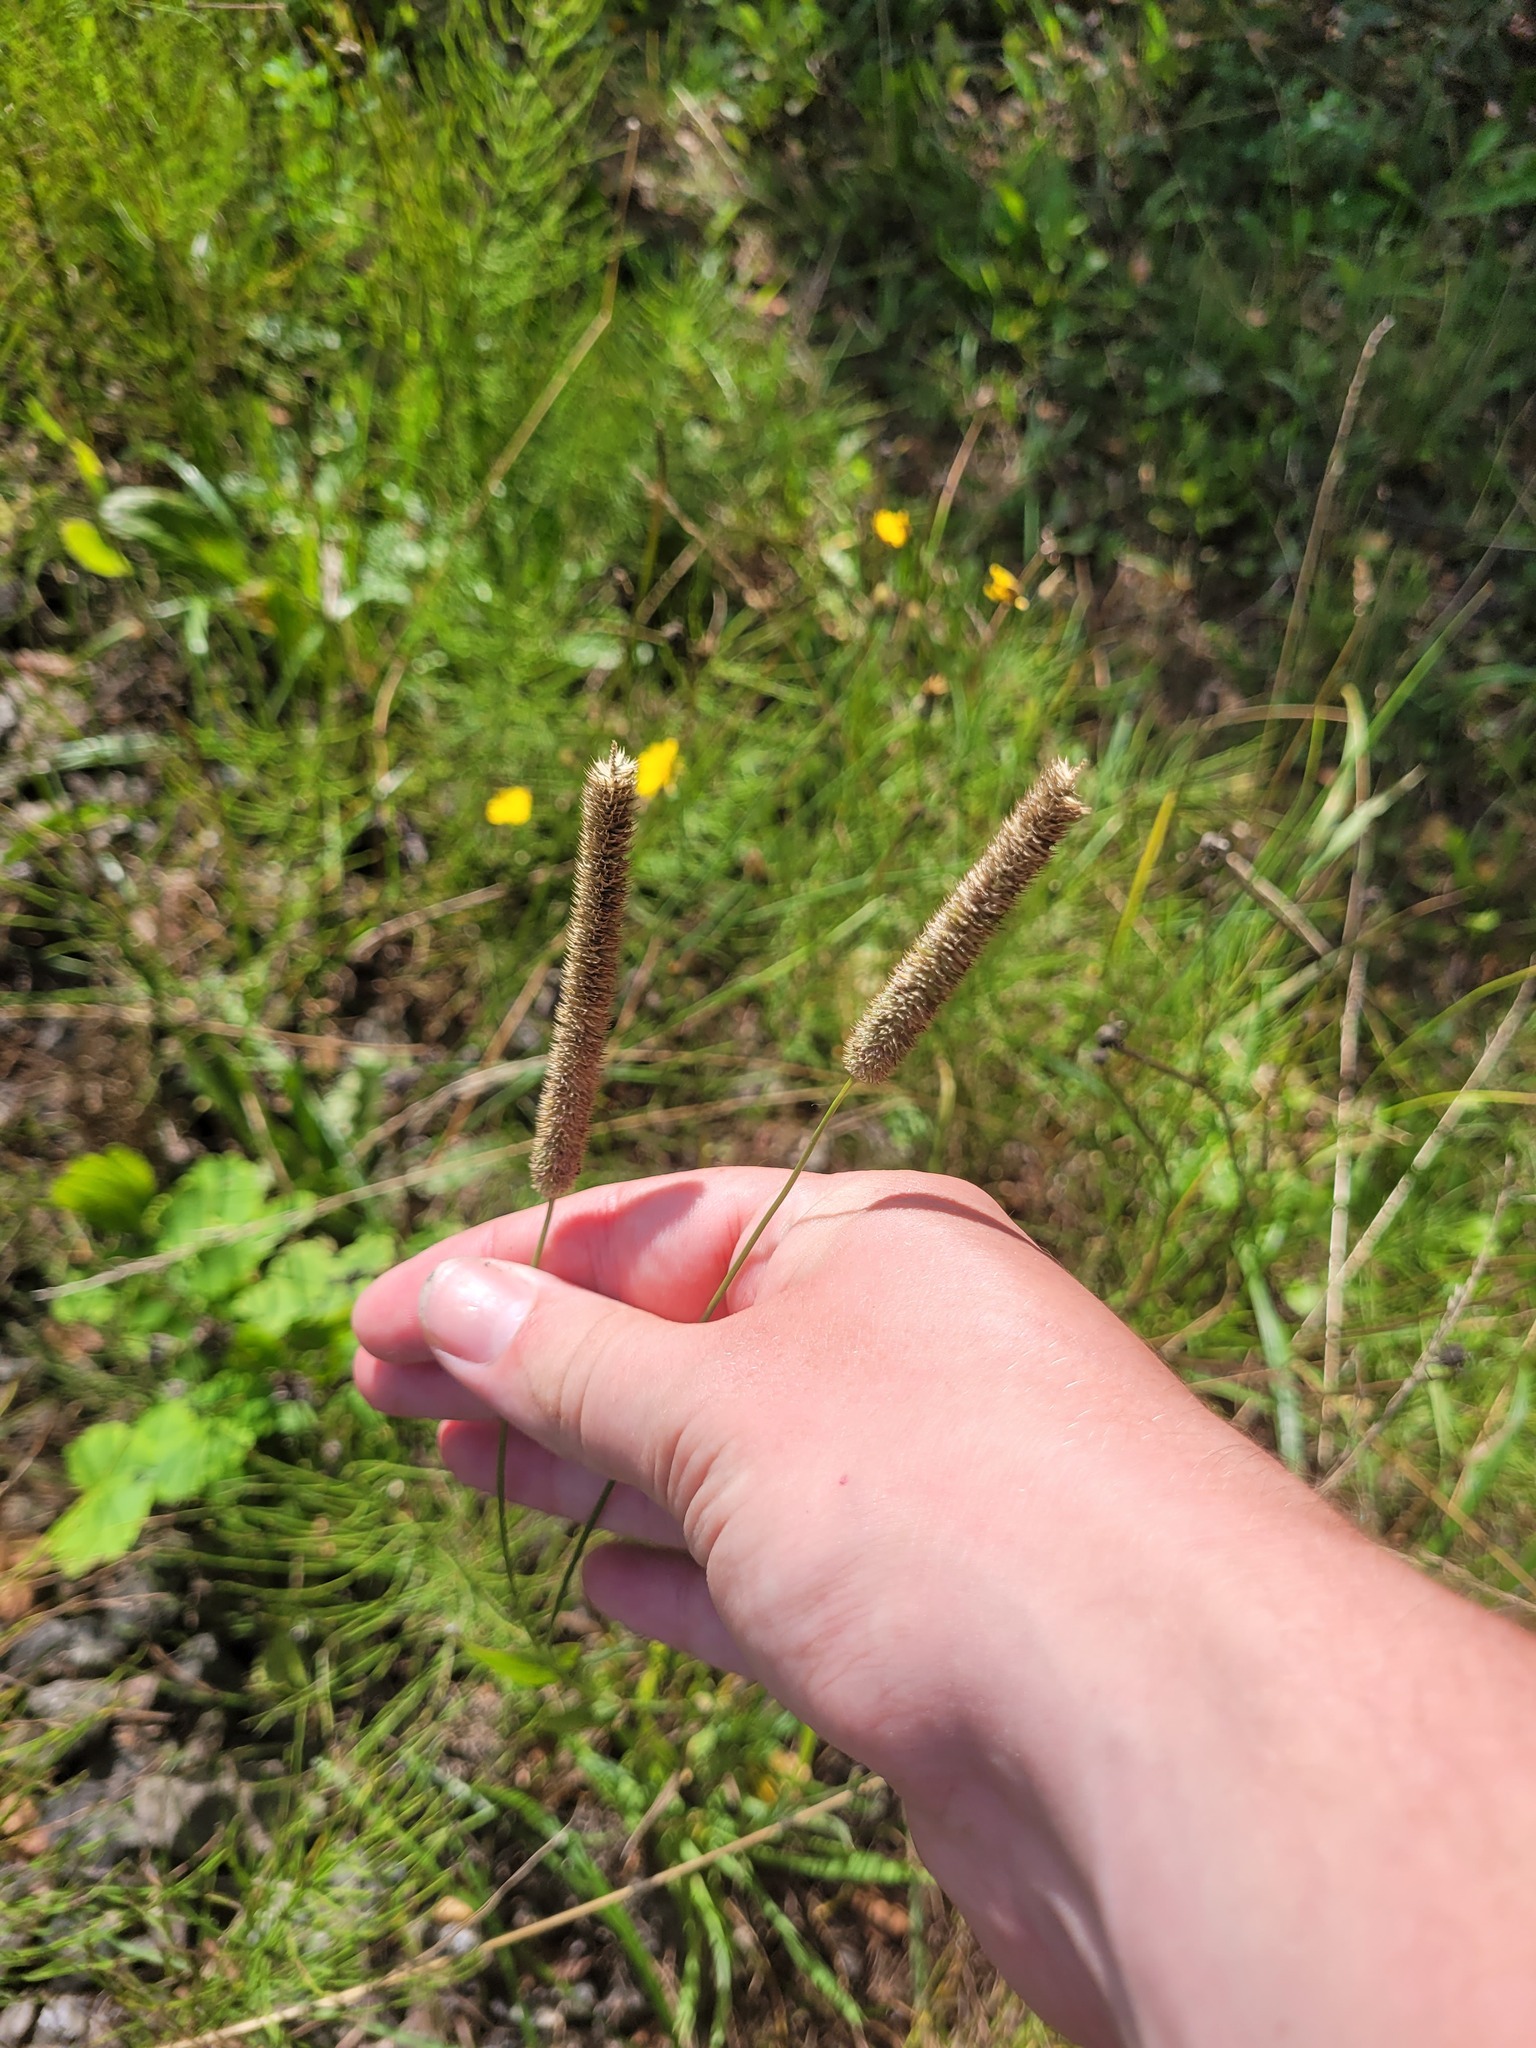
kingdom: Plantae
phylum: Tracheophyta
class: Liliopsida
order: Poales
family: Poaceae
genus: Phleum
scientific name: Phleum pratense
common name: Timothy grass
